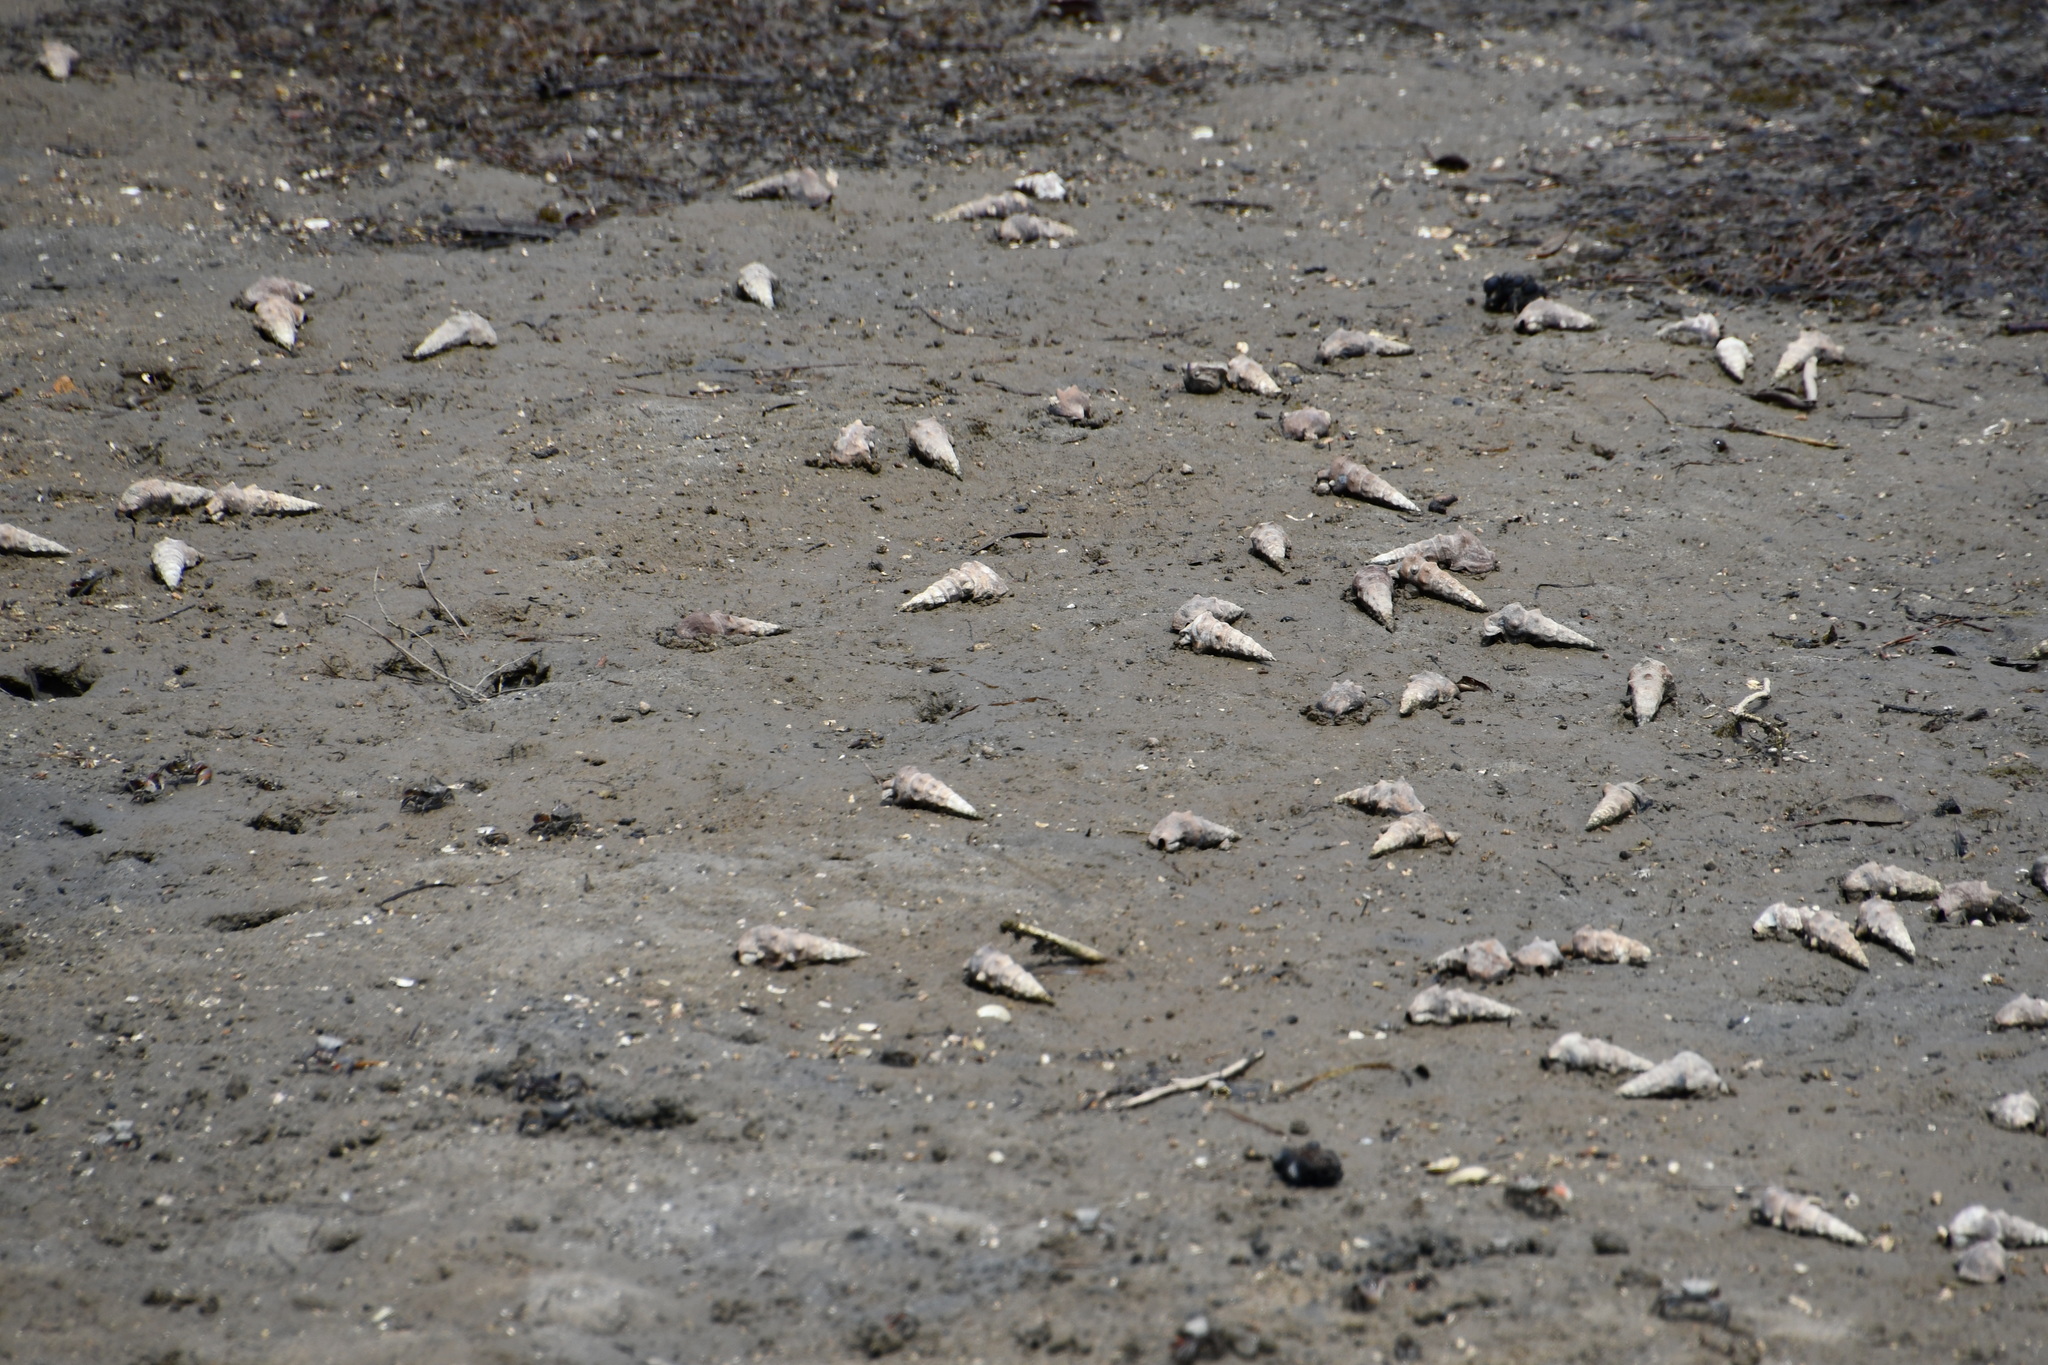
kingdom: Animalia
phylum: Mollusca
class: Gastropoda
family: Batillariidae
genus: Pyrazus
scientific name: Pyrazus ebeninus
